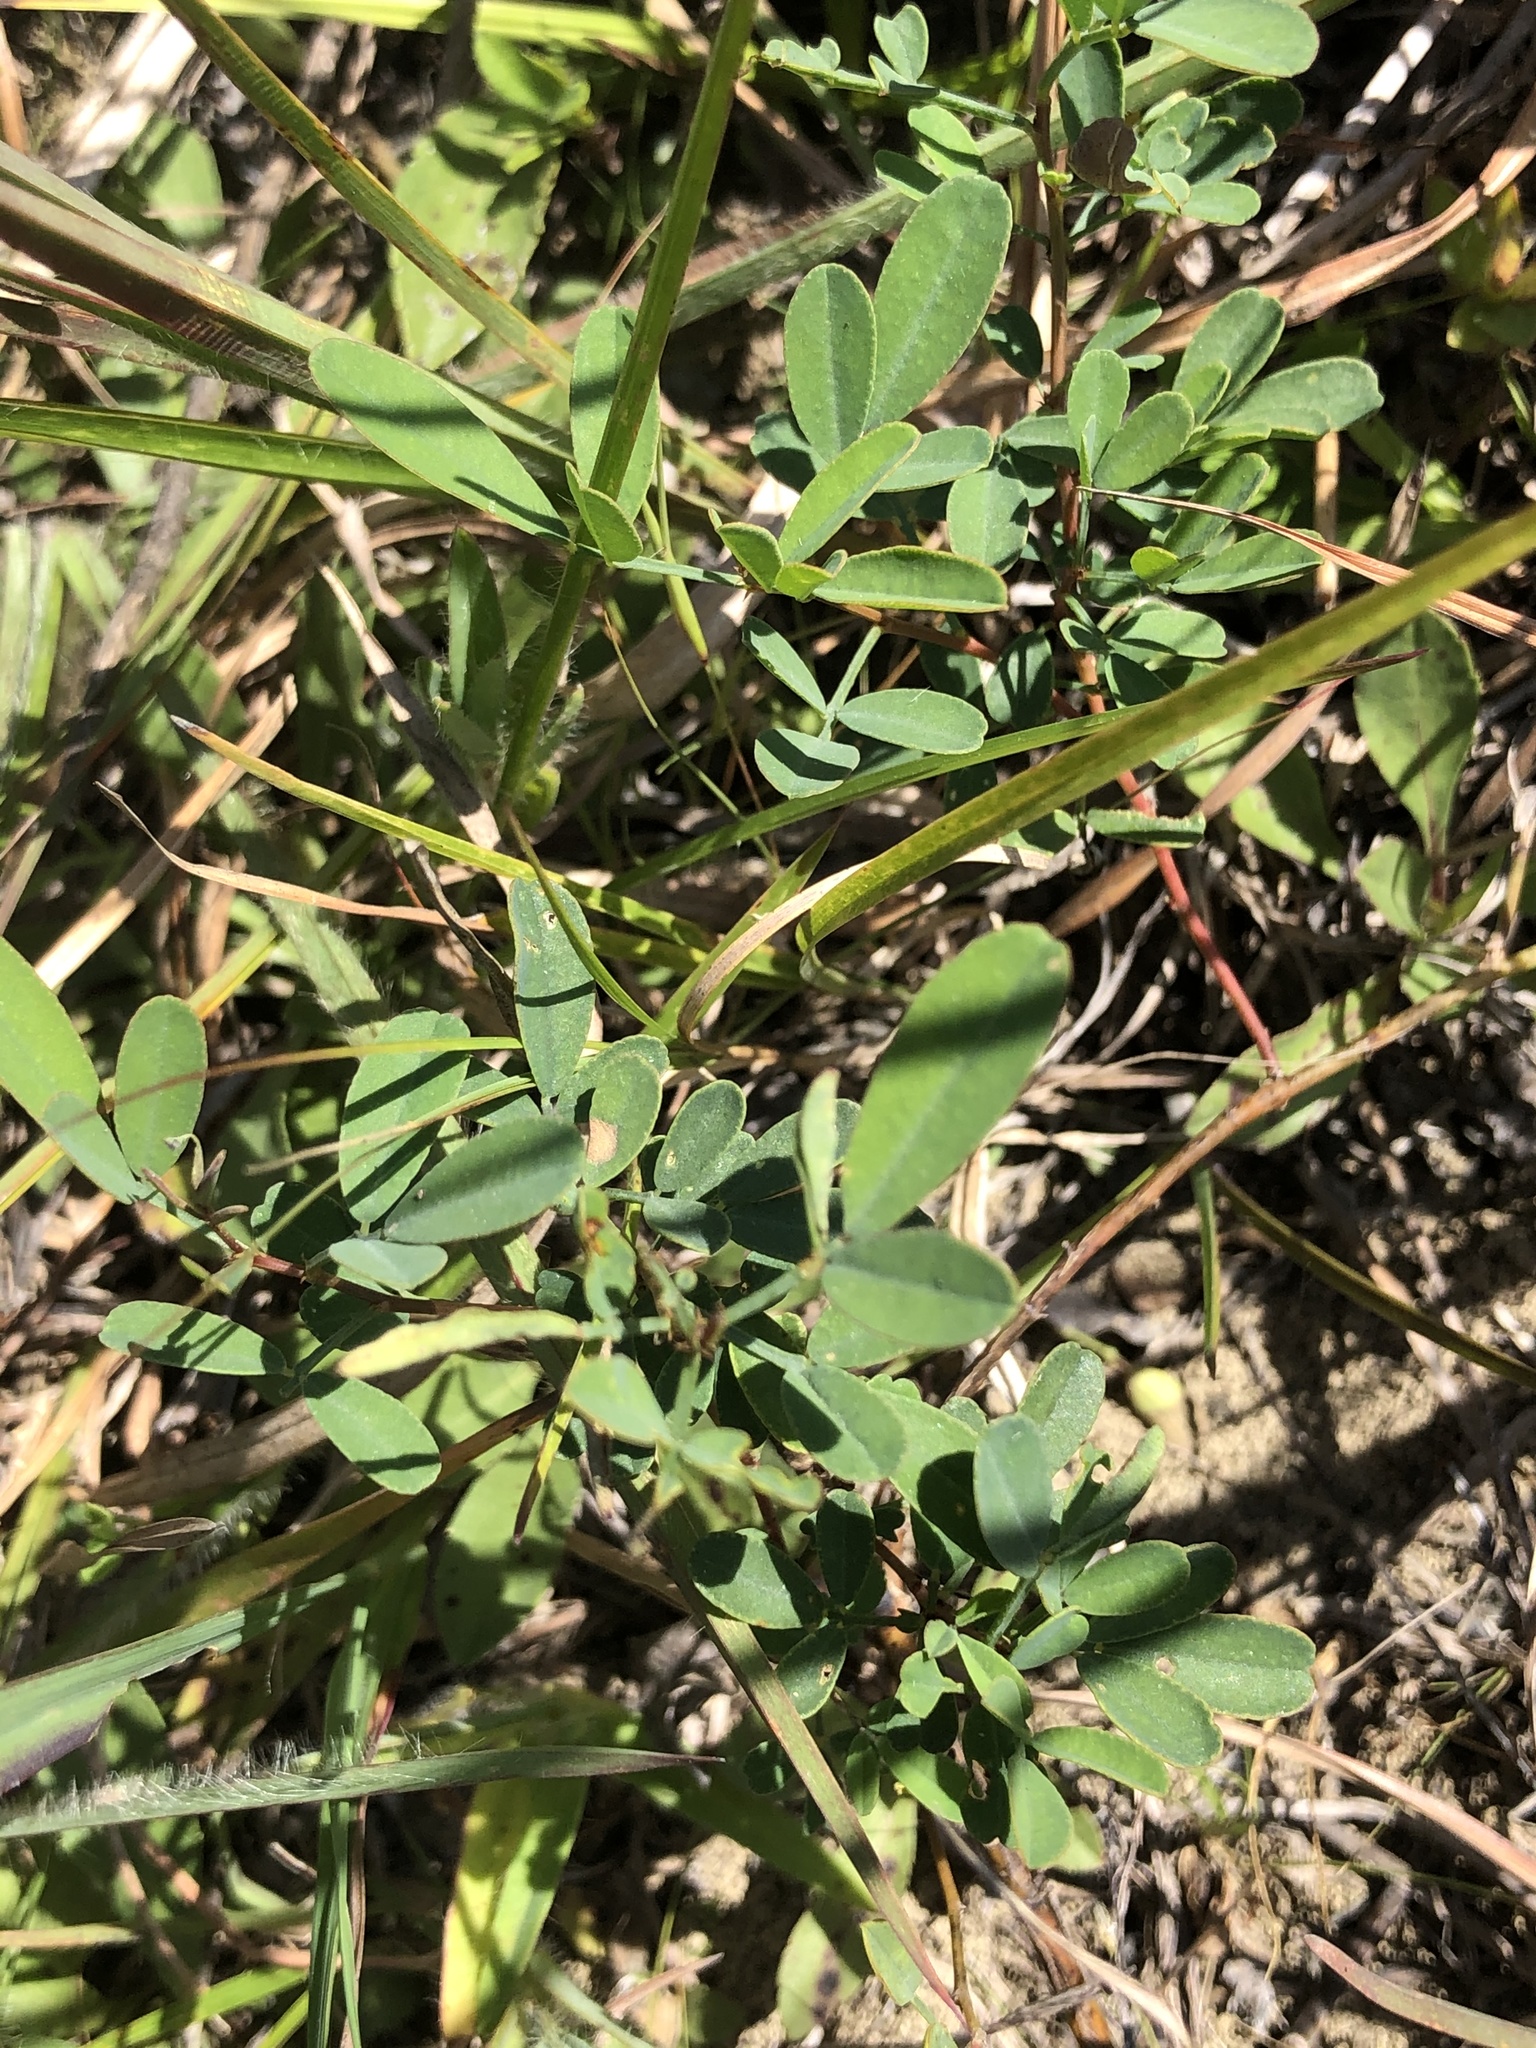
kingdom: Plantae
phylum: Tracheophyta
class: Magnoliopsida
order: Fabales
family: Fabaceae
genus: Dalea
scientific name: Dalea candida
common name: White prairie-clover
